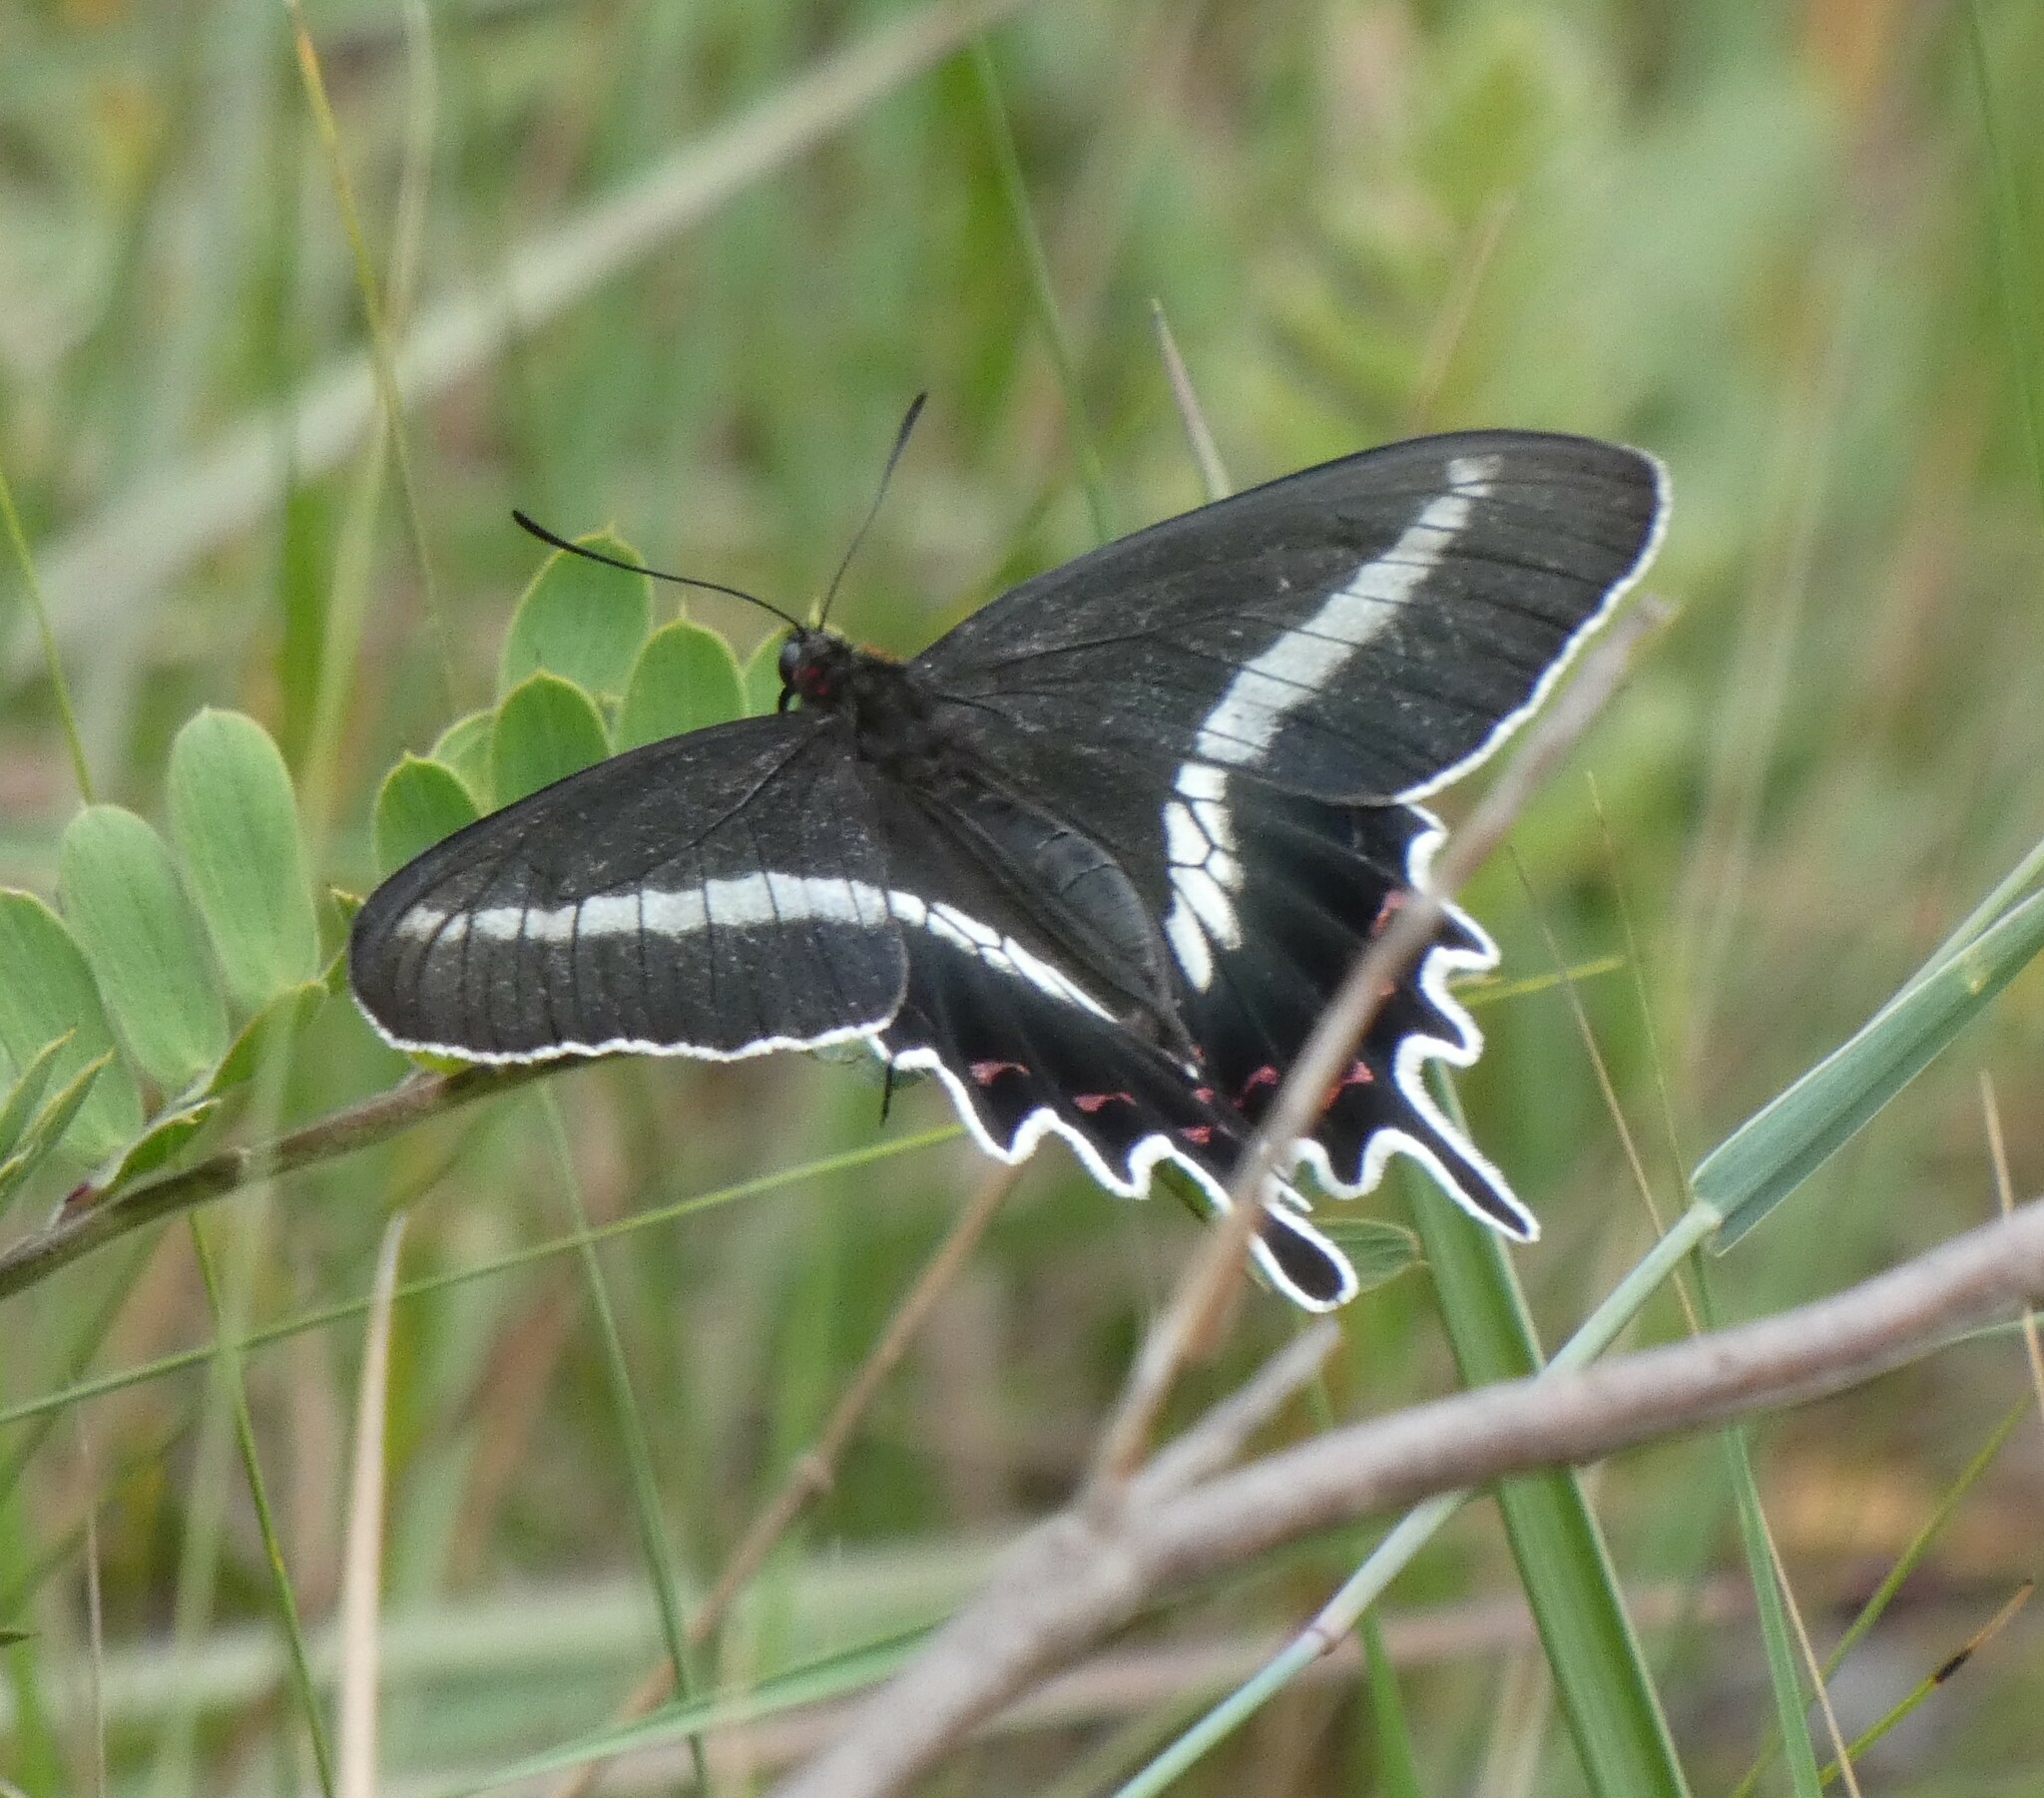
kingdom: Animalia
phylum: Arthropoda
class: Insecta
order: Lepidoptera
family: Papilionidae
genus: Parides
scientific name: Parides bunichus
